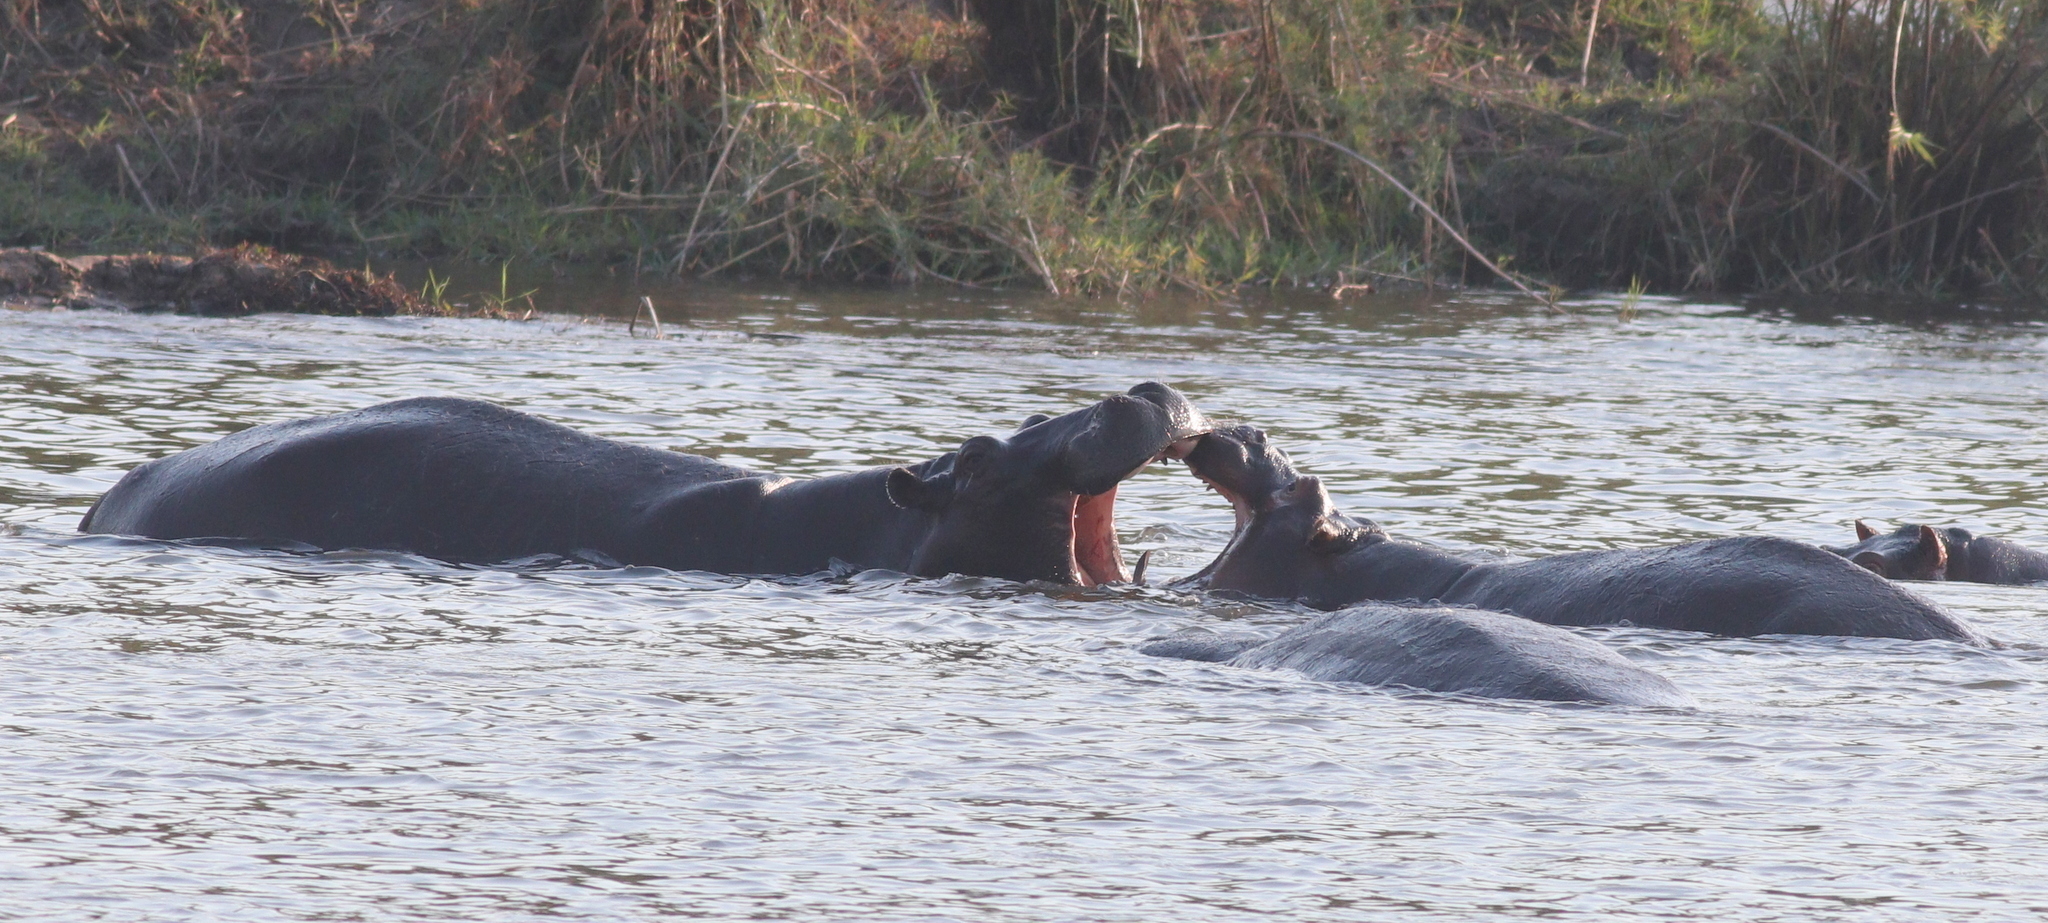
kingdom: Animalia
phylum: Chordata
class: Mammalia
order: Artiodactyla
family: Hippopotamidae
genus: Hippopotamus
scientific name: Hippopotamus amphibius
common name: Common hippopotamus
